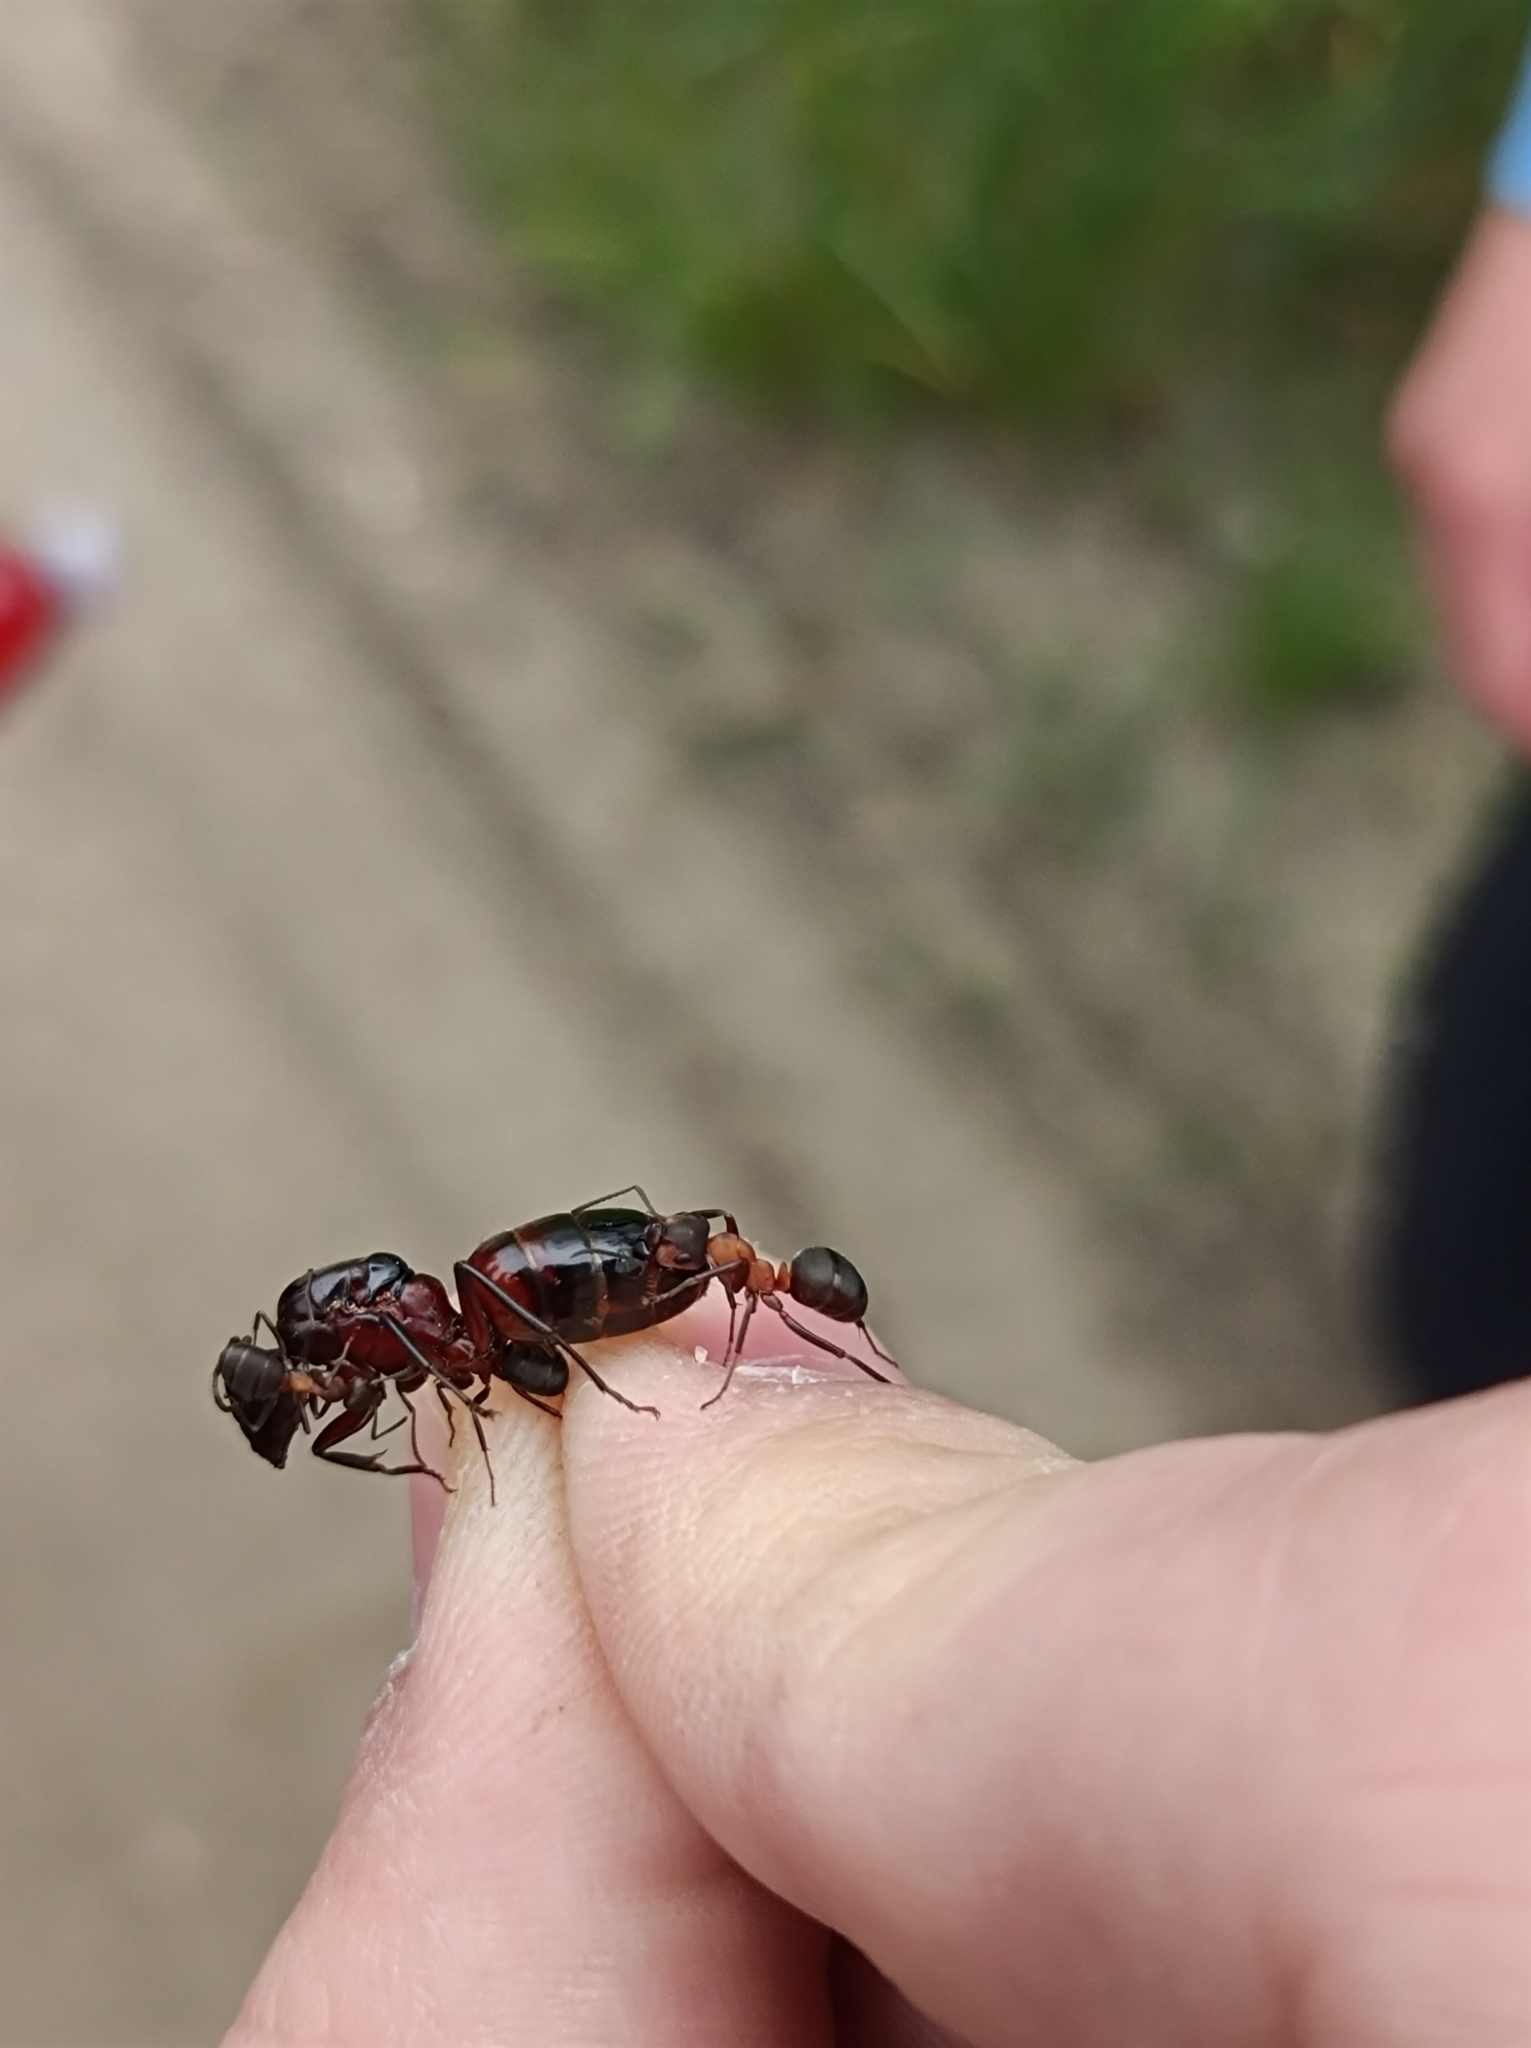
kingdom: Animalia
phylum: Arthropoda
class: Insecta
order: Hymenoptera
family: Formicidae
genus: Camponotus
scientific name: Camponotus ligniperdus
